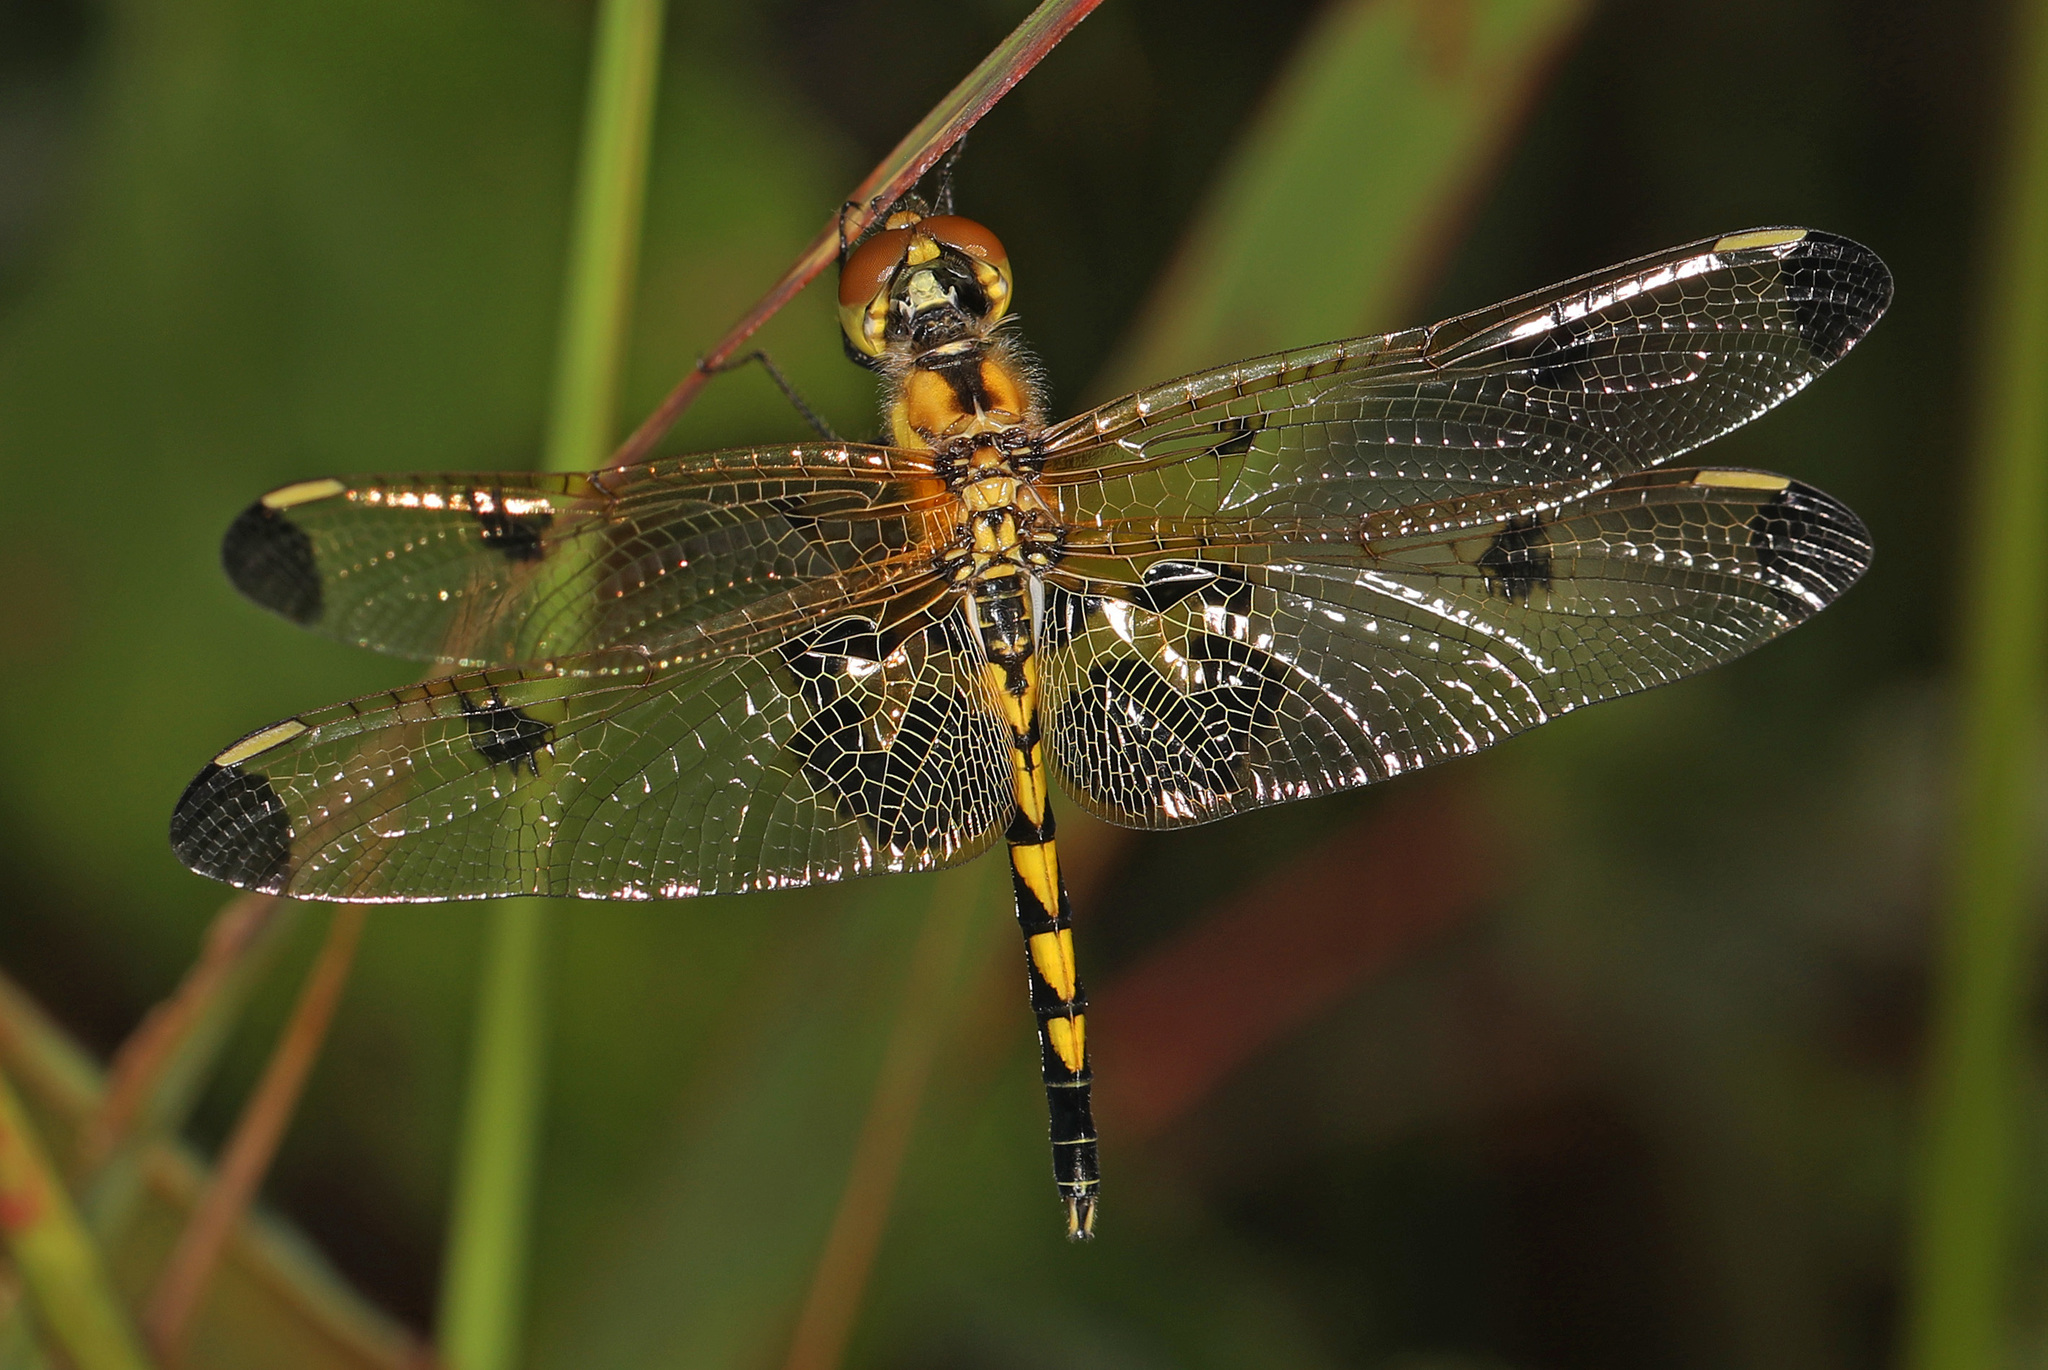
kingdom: Animalia
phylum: Arthropoda
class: Insecta
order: Odonata
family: Libellulidae
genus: Celithemis
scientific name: Celithemis elisa
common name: Calico pennant
